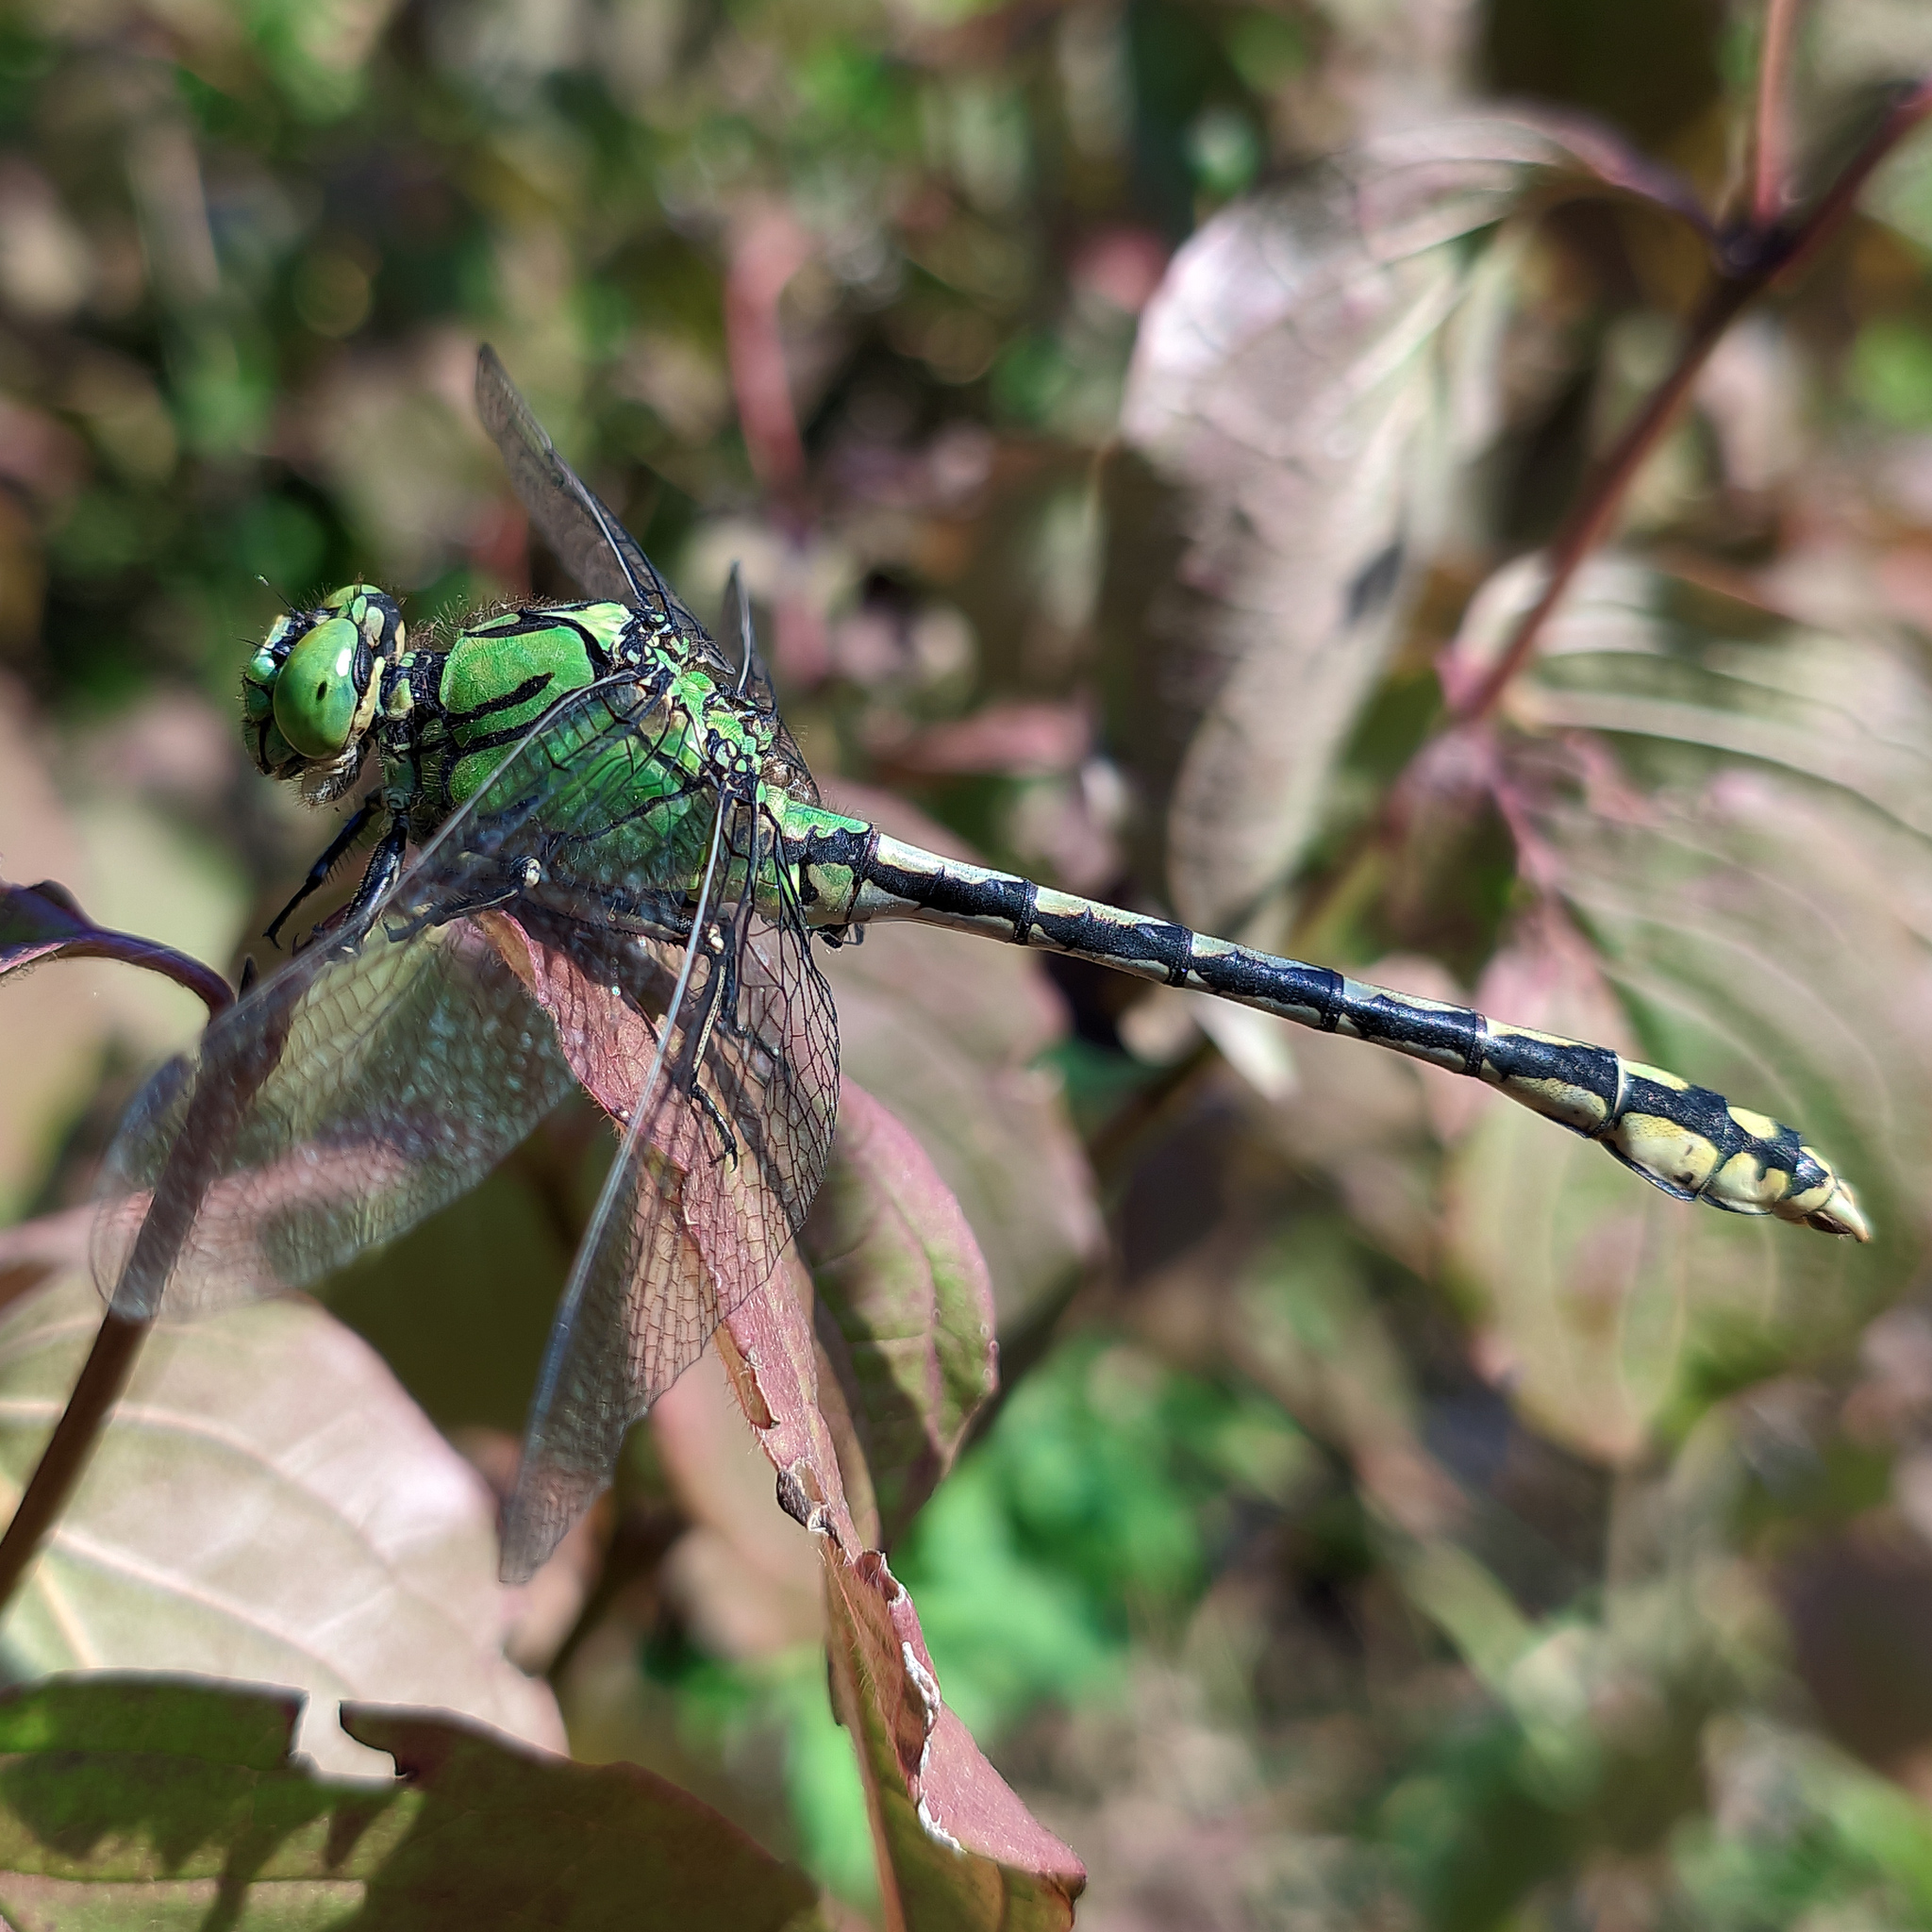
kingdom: Animalia
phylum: Arthropoda
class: Insecta
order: Odonata
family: Gomphidae
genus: Ophiogomphus
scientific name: Ophiogomphus cecilia
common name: Green snaketail
